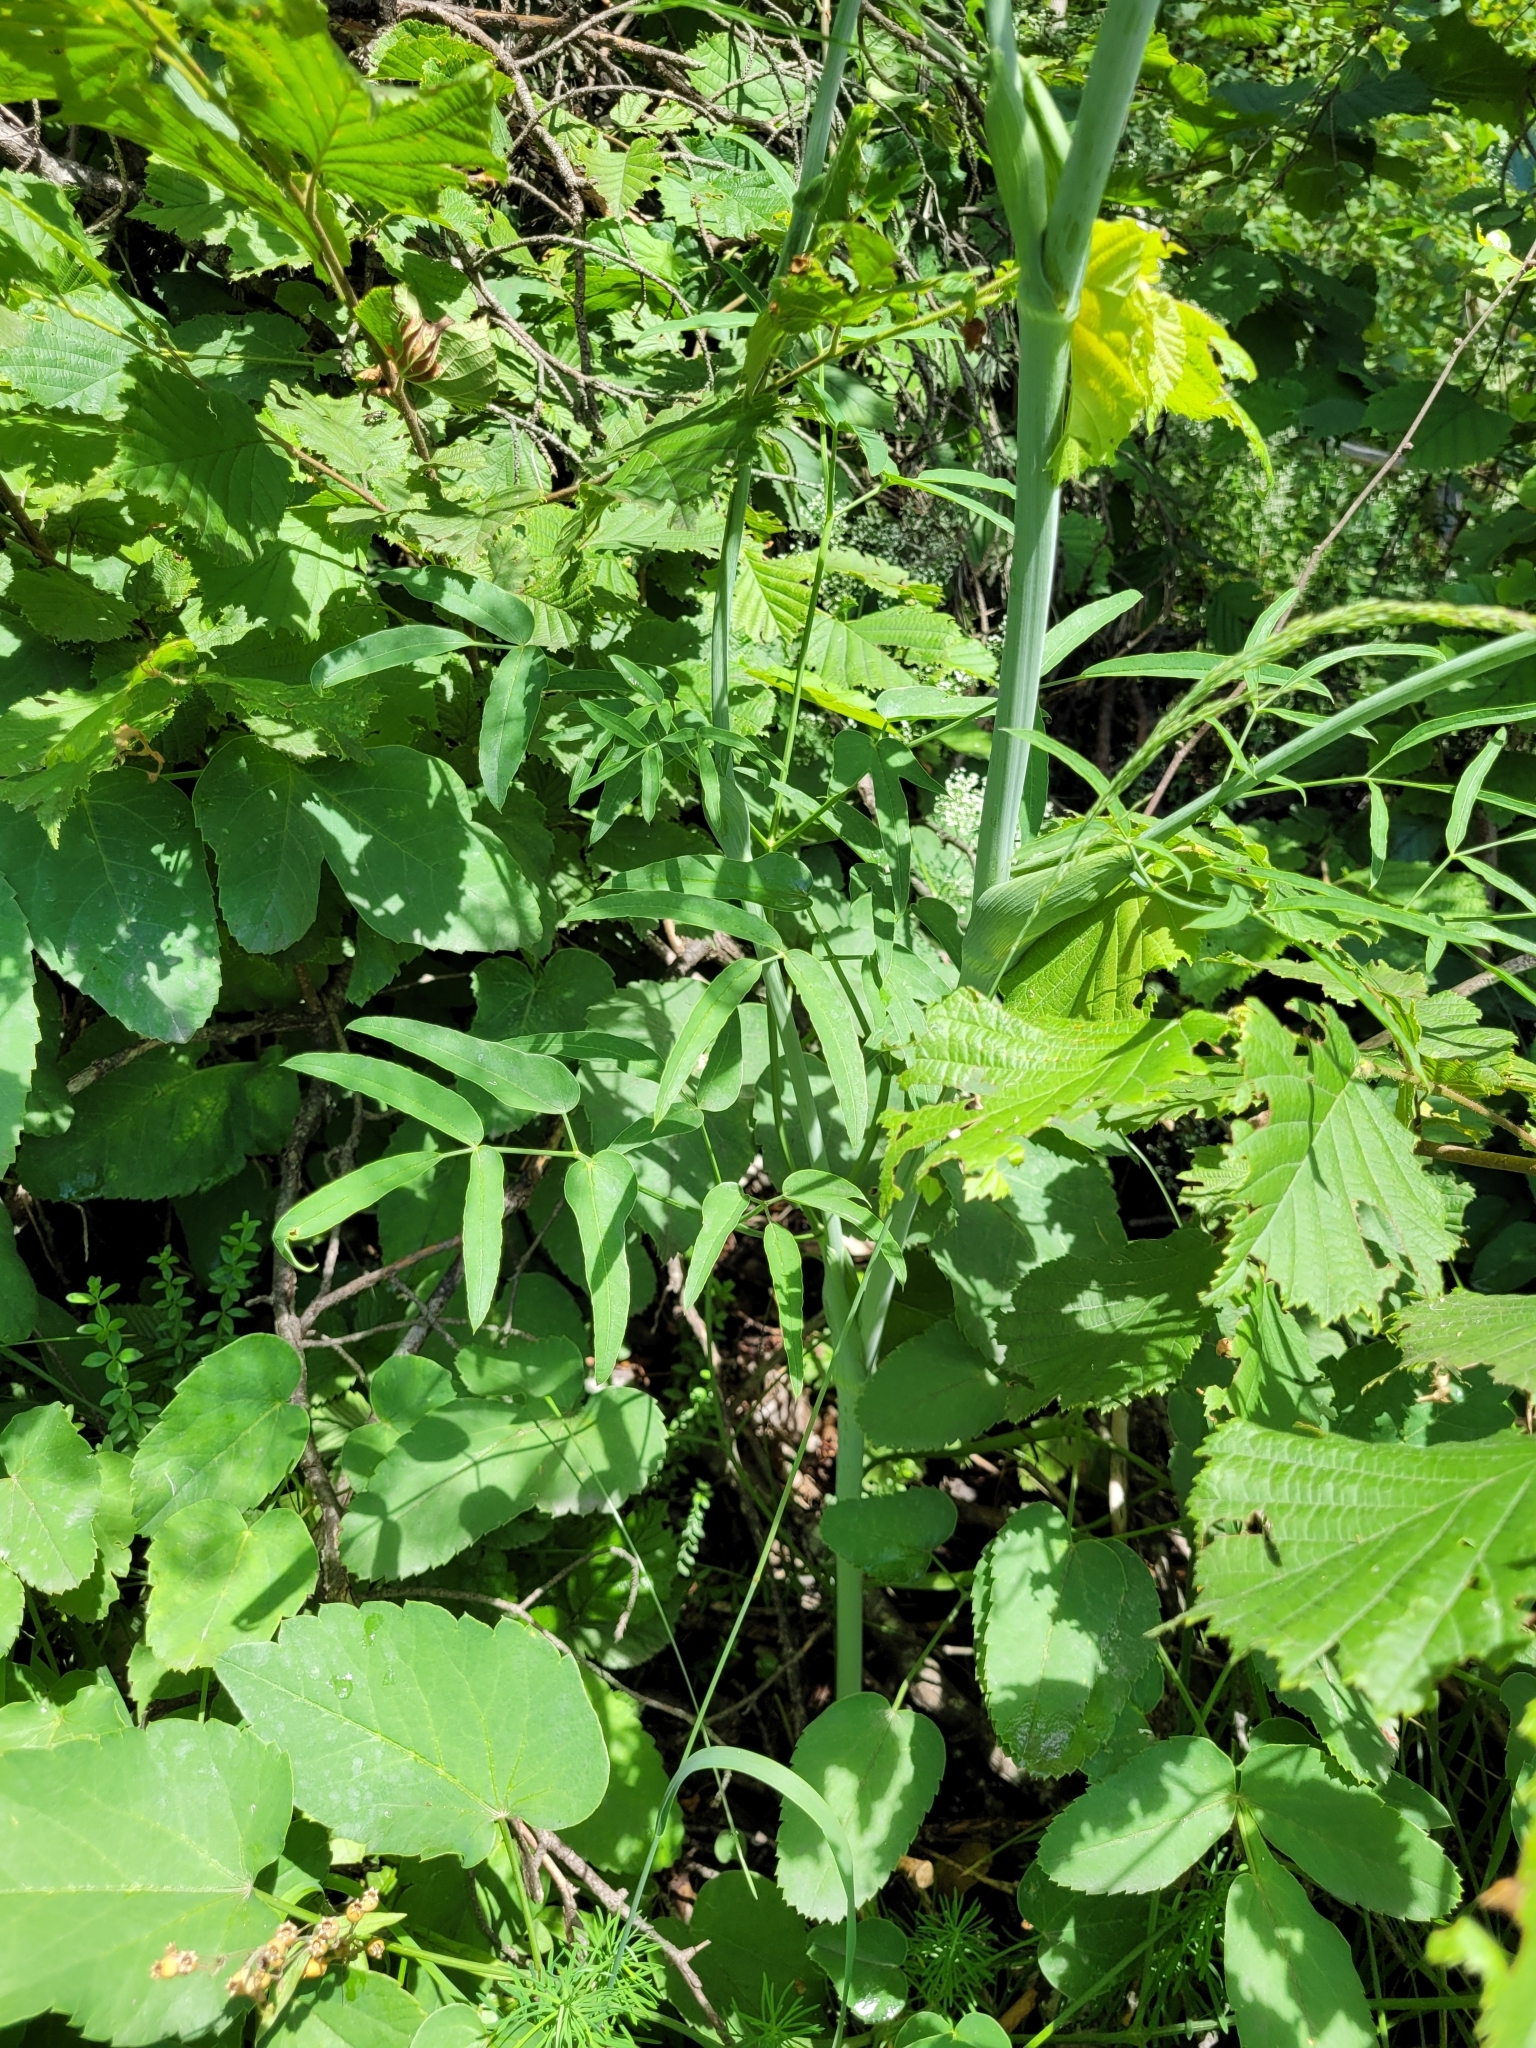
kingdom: Plantae
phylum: Tracheophyta
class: Magnoliopsida
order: Apiales
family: Apiaceae
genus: Laserpitium
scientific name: Laserpitium latifolium
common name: Broadleaf sermountain
